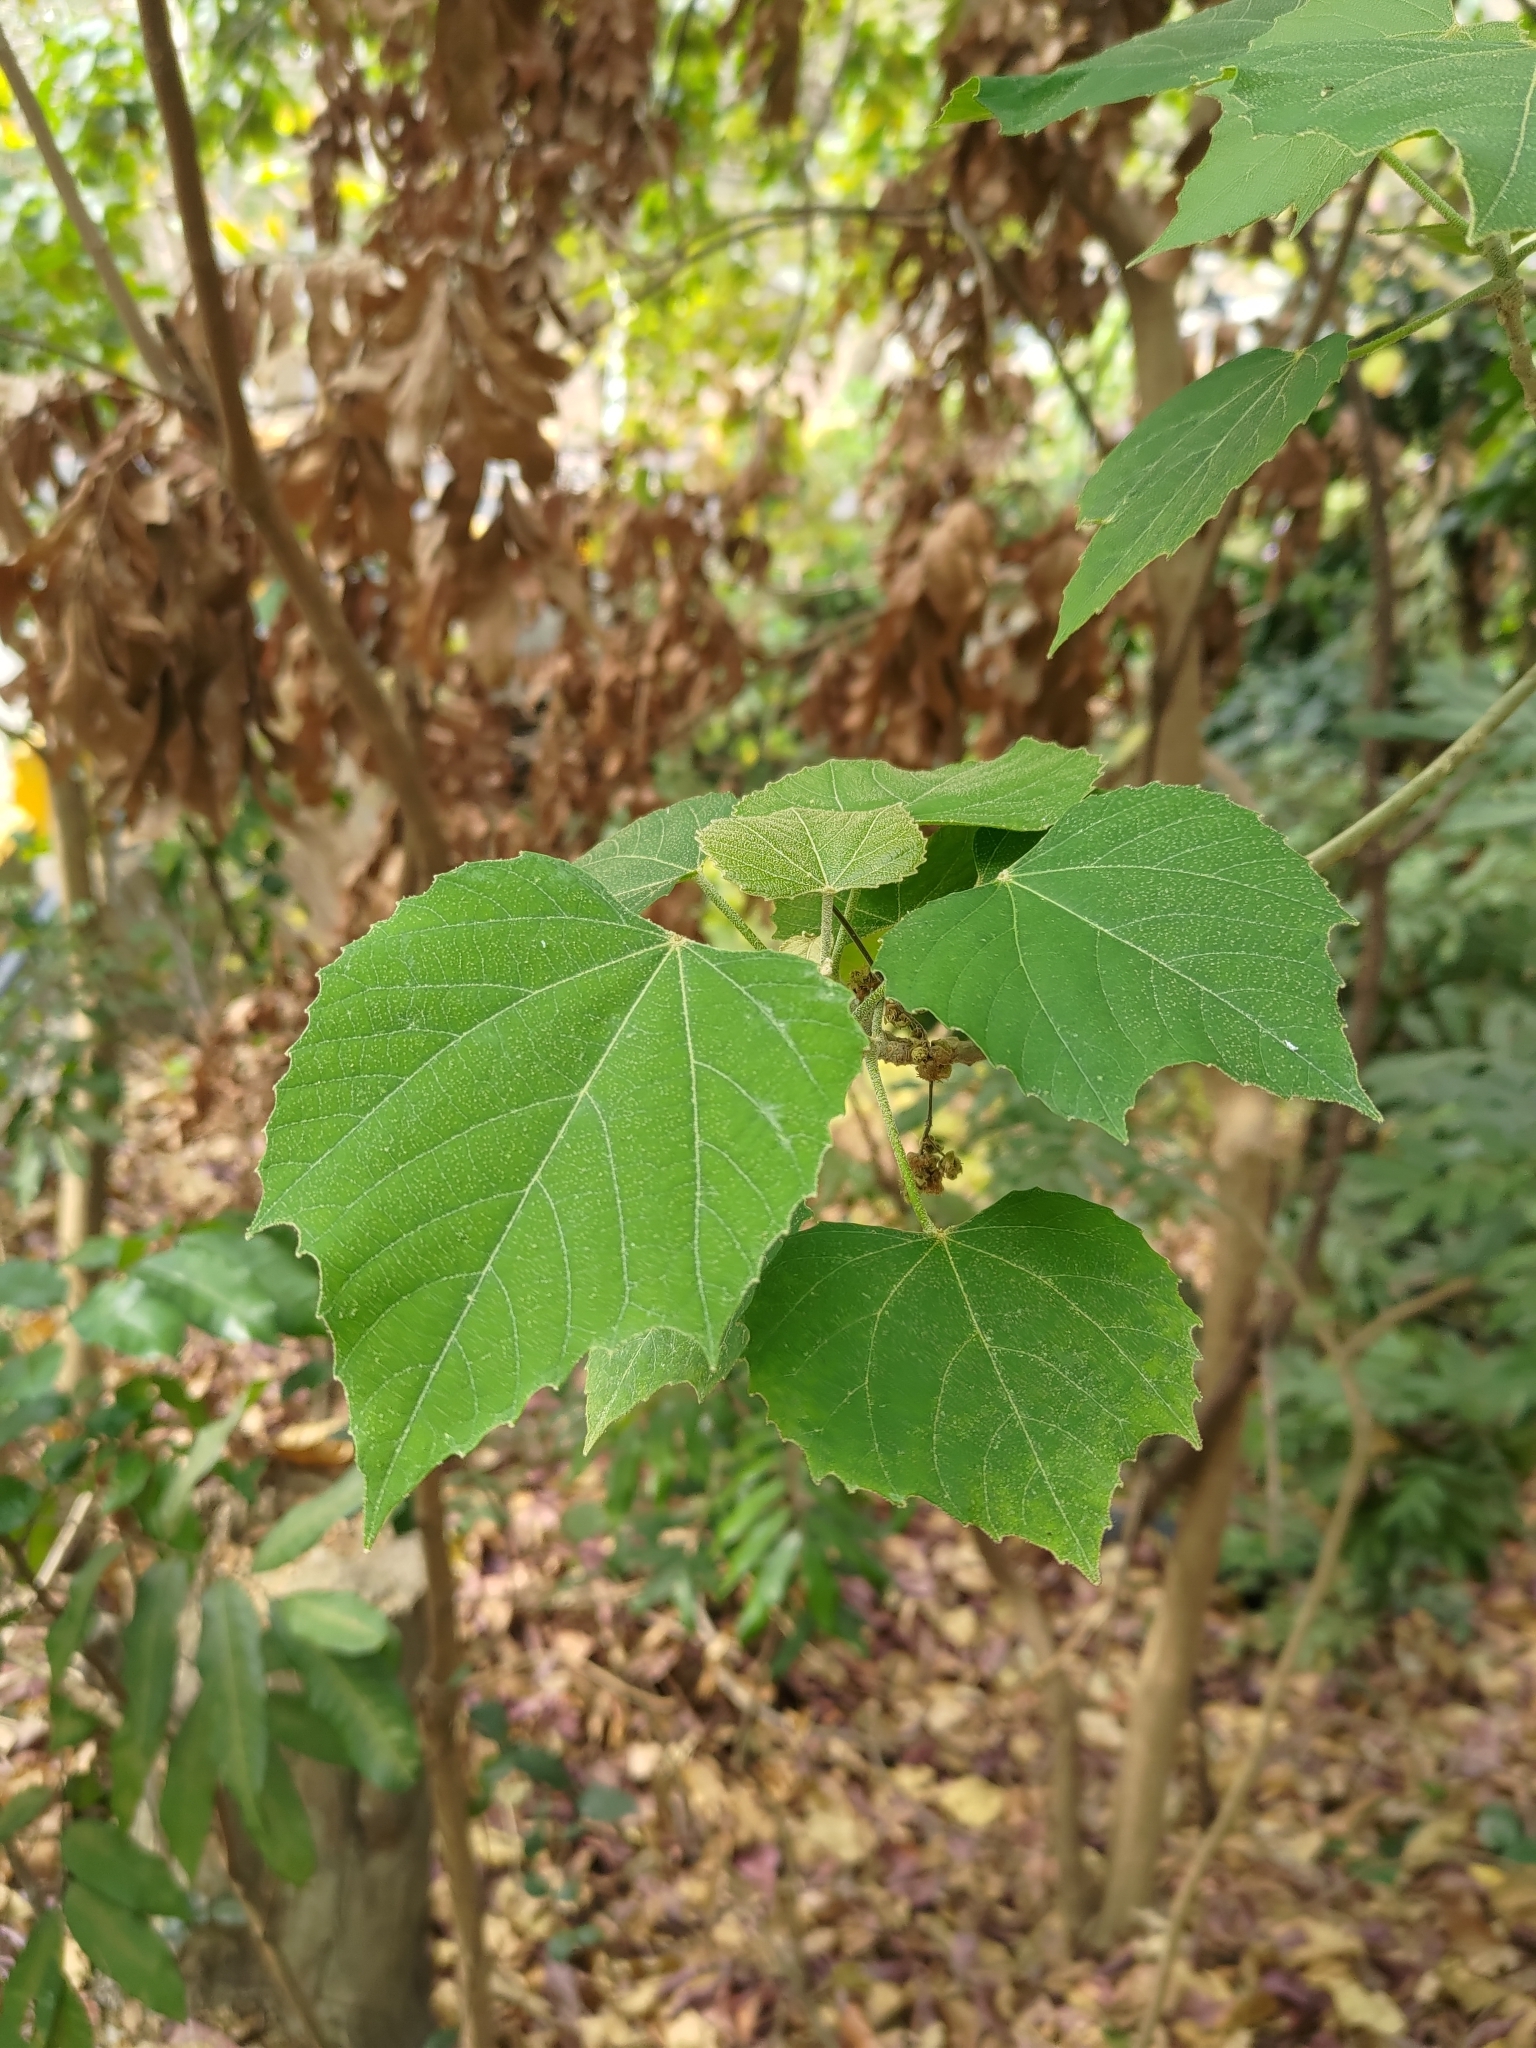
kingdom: Plantae
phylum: Tracheophyta
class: Magnoliopsida
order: Malpighiales
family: Euphorbiaceae
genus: Melanolepis
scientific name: Melanolepis multiglandulosa
